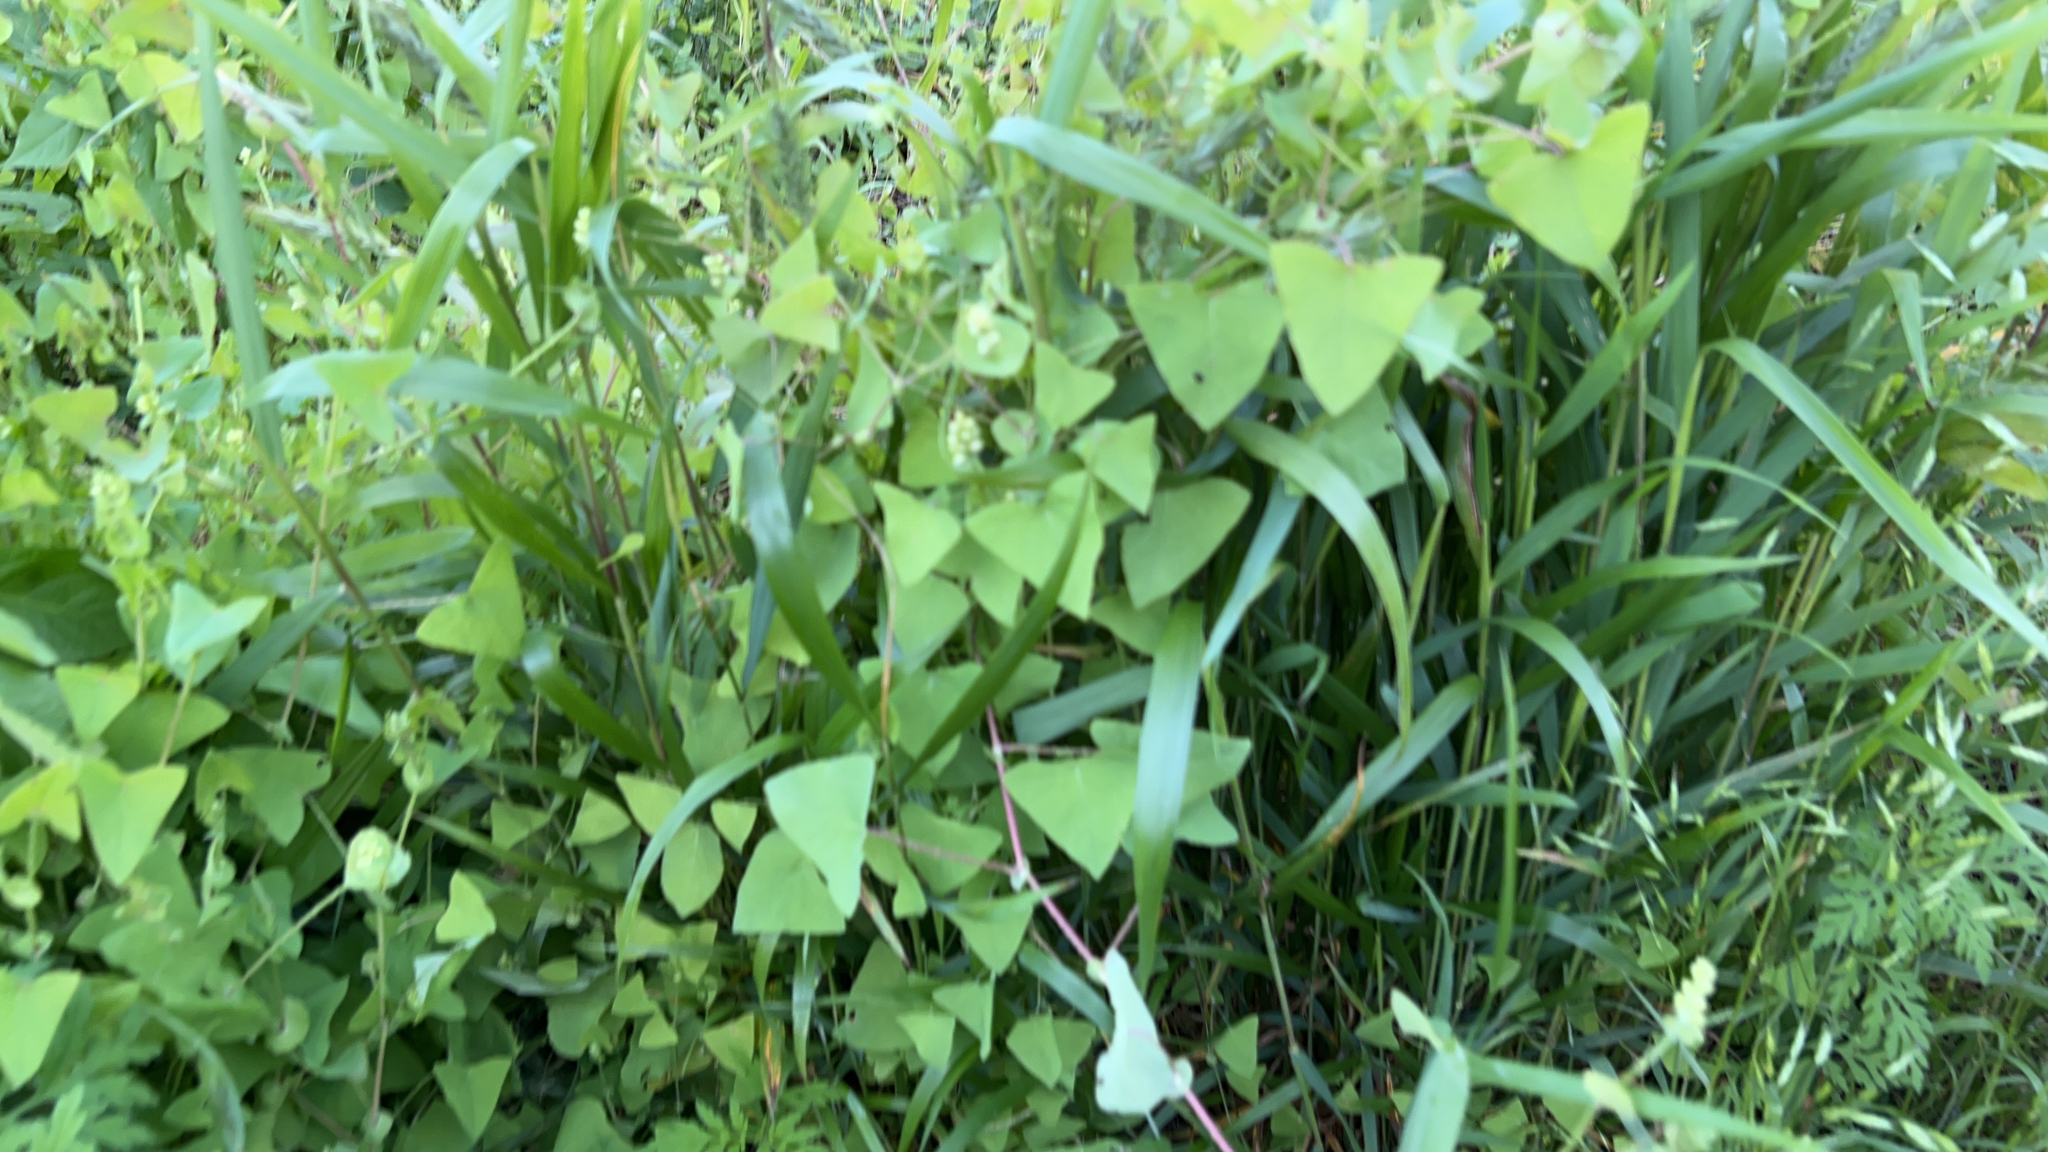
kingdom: Plantae
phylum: Tracheophyta
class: Magnoliopsida
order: Caryophyllales
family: Polygonaceae
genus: Persicaria
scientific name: Persicaria perfoliata
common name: Asiatic tearthumb
